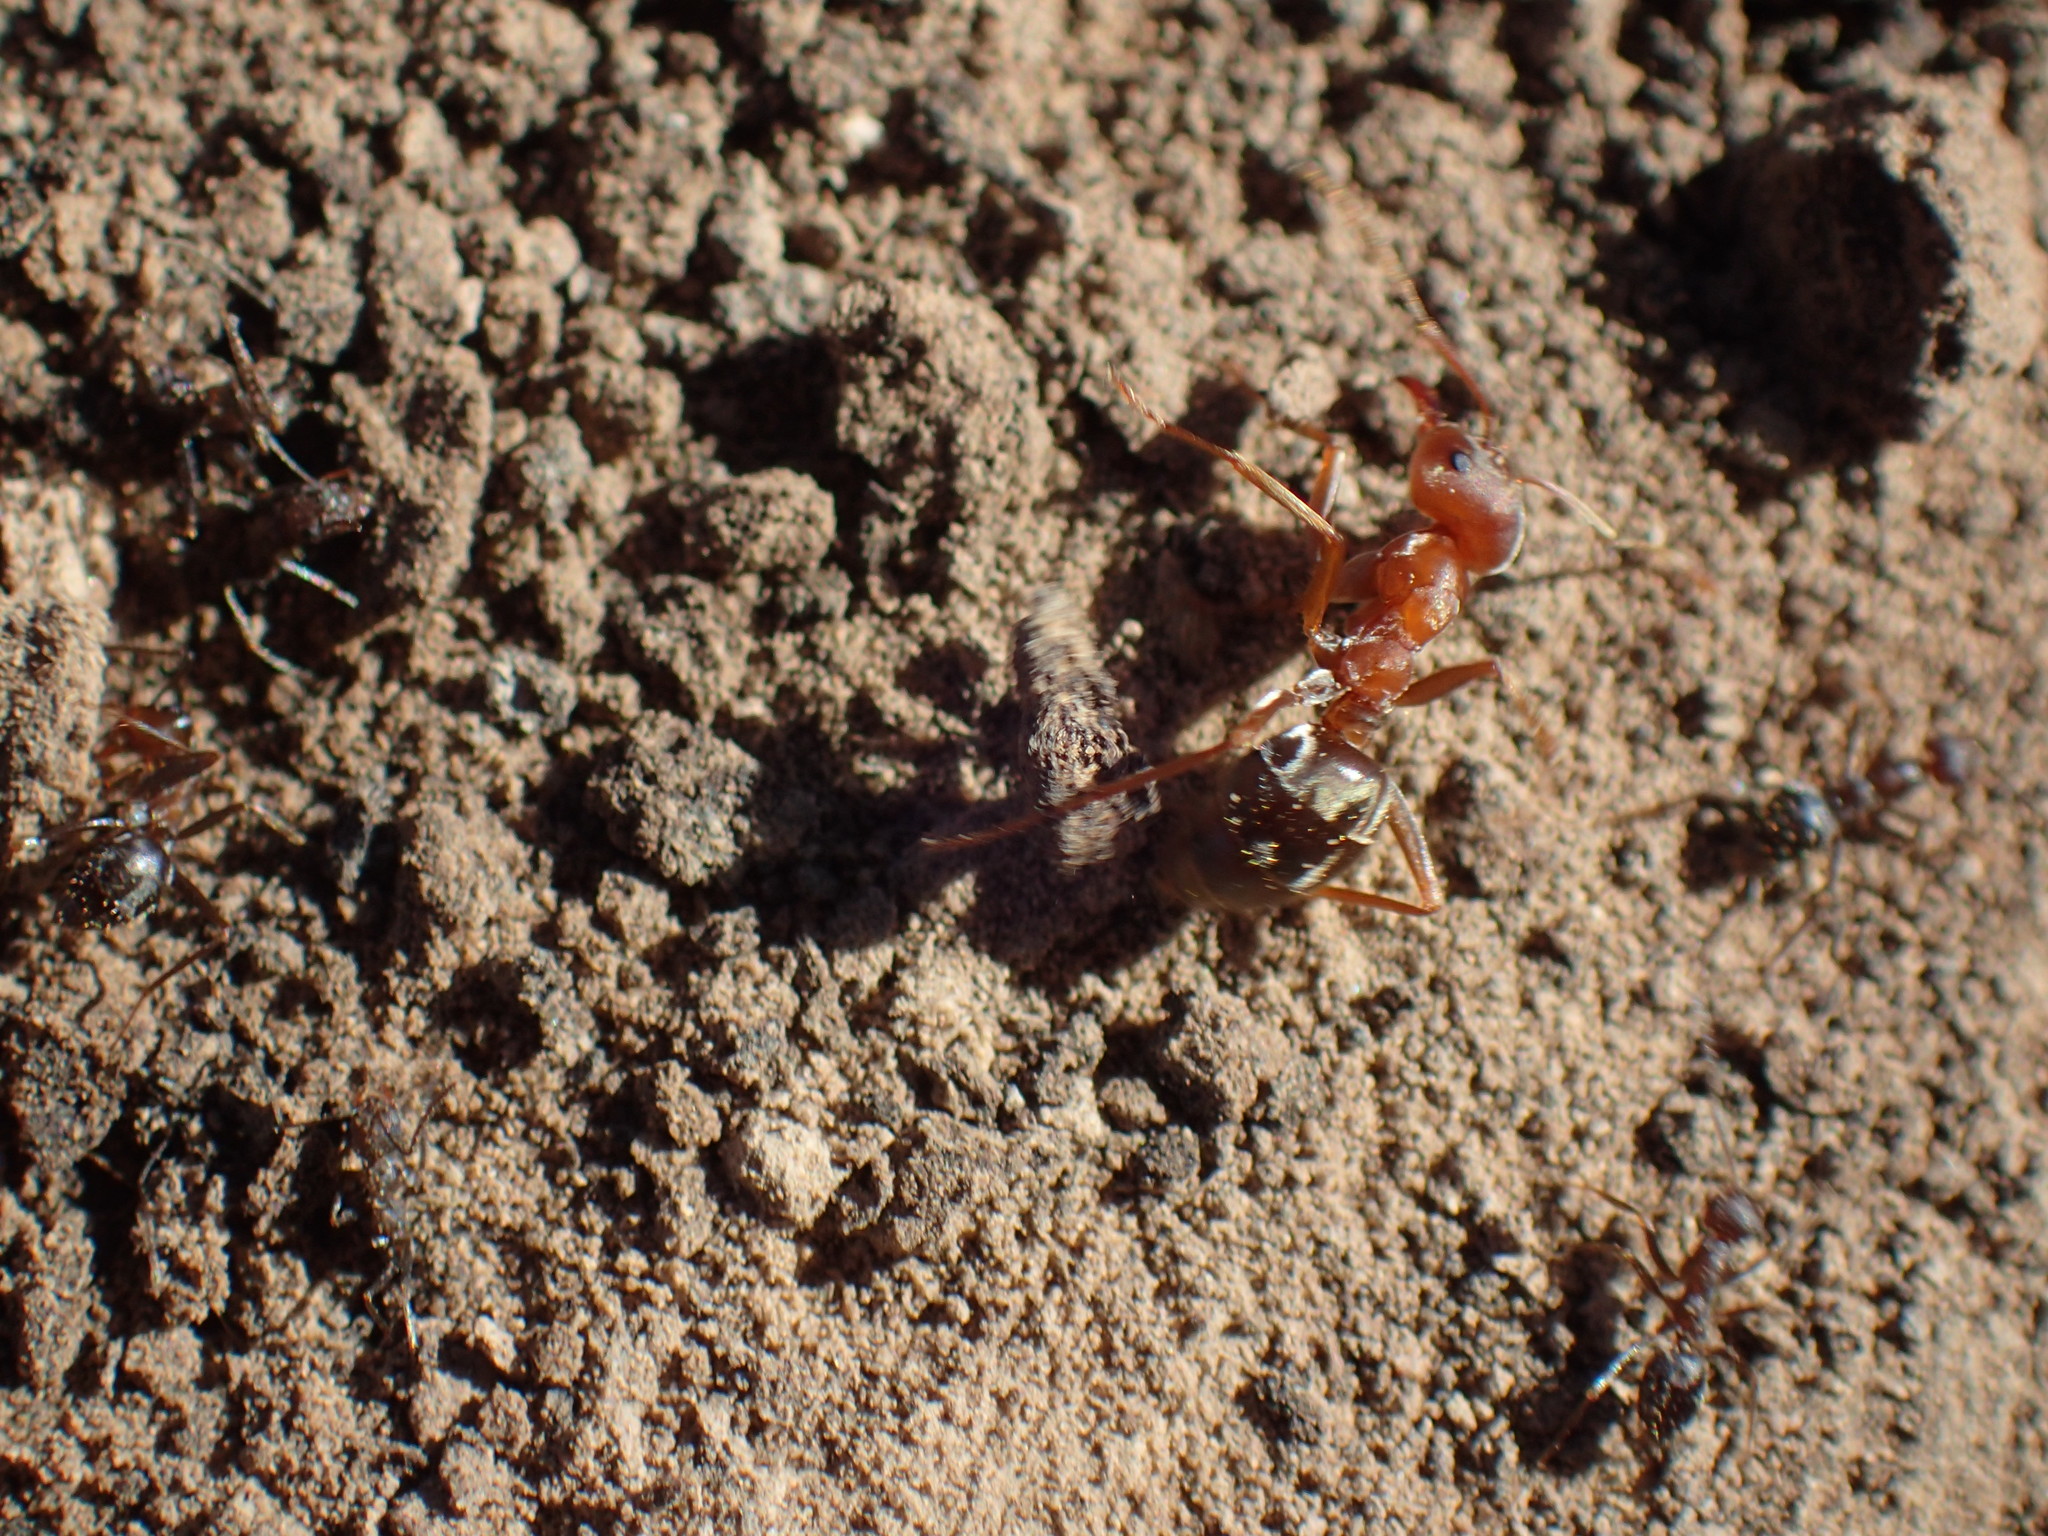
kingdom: Animalia
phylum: Arthropoda
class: Insecta
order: Hymenoptera
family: Formicidae
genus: Anoplolepis
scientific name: Anoplolepis custodiens
